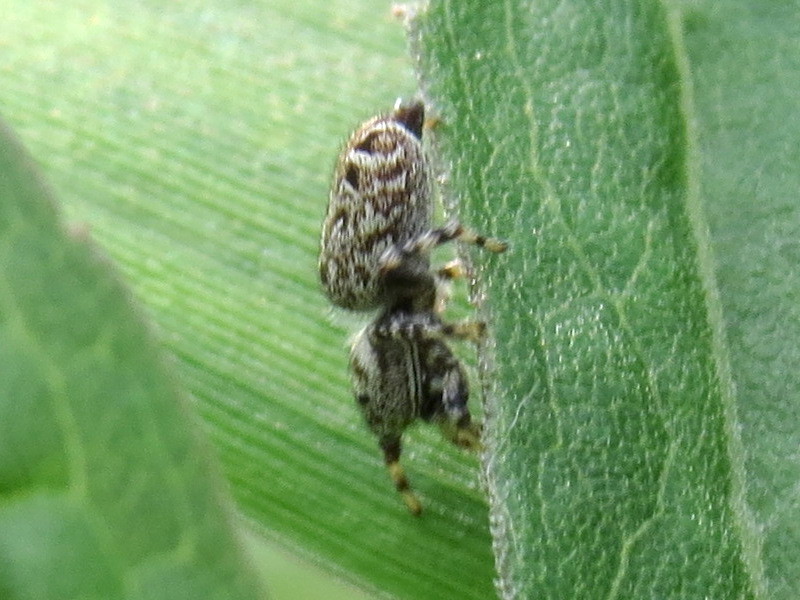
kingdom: Animalia
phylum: Arthropoda
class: Arachnida
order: Araneae
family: Salticidae
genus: Pelegrina
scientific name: Pelegrina galathea
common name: Jumping spiders
